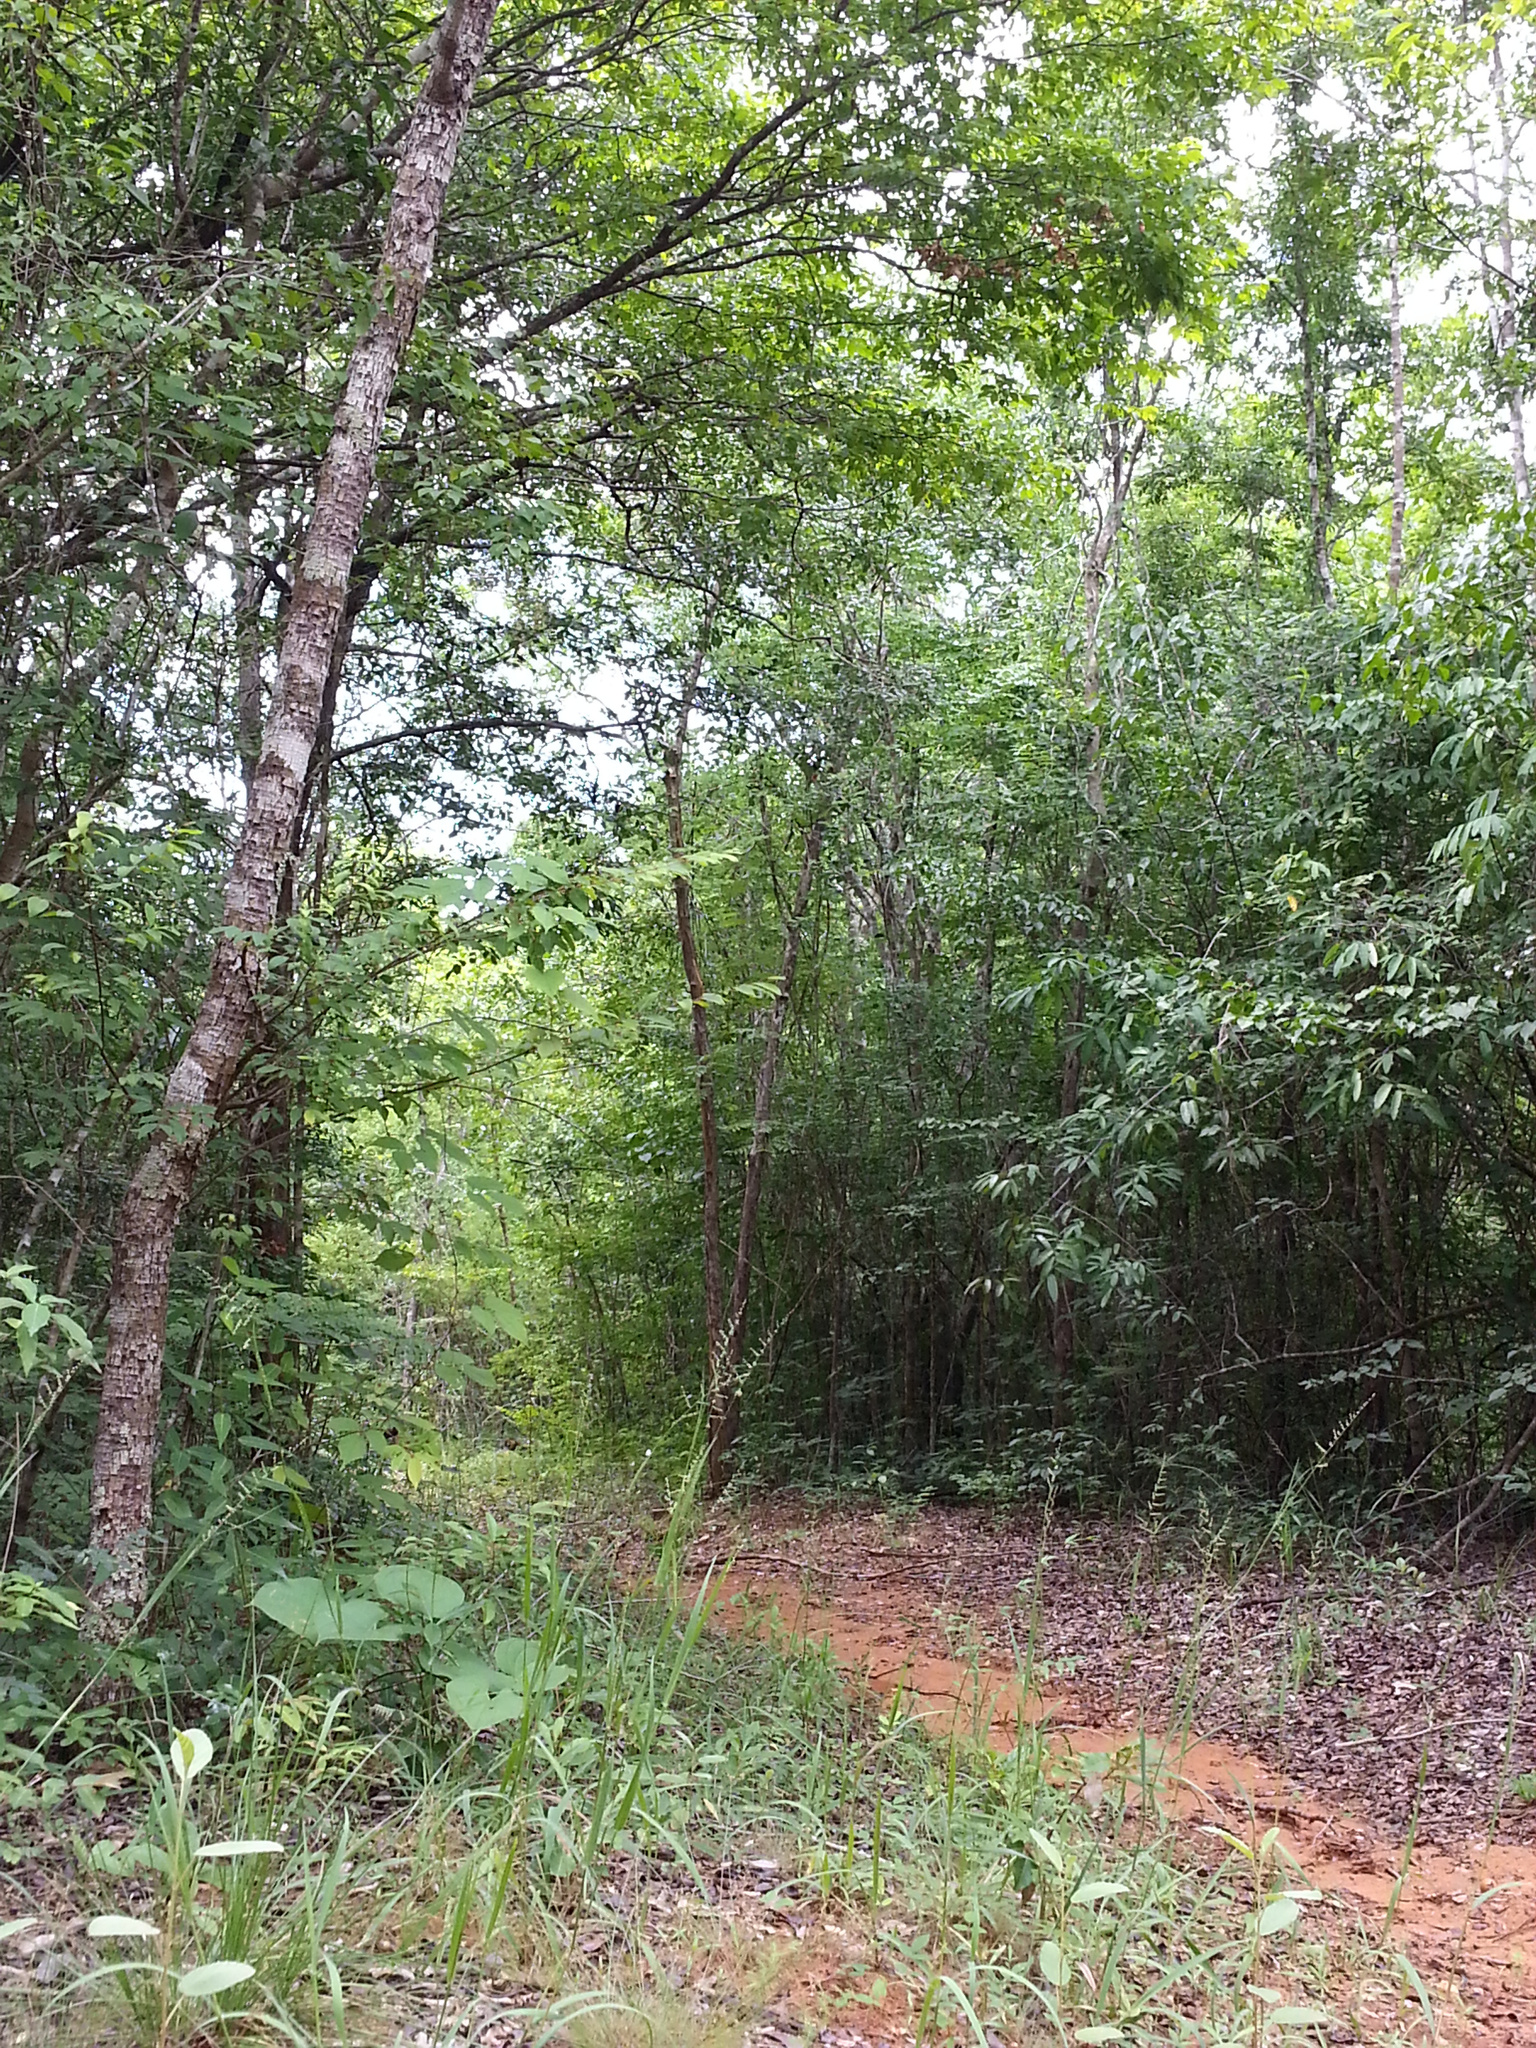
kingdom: Plantae
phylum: Tracheophyta
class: Liliopsida
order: Poales
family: Poaceae
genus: Setaria
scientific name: Setaria madecassa
